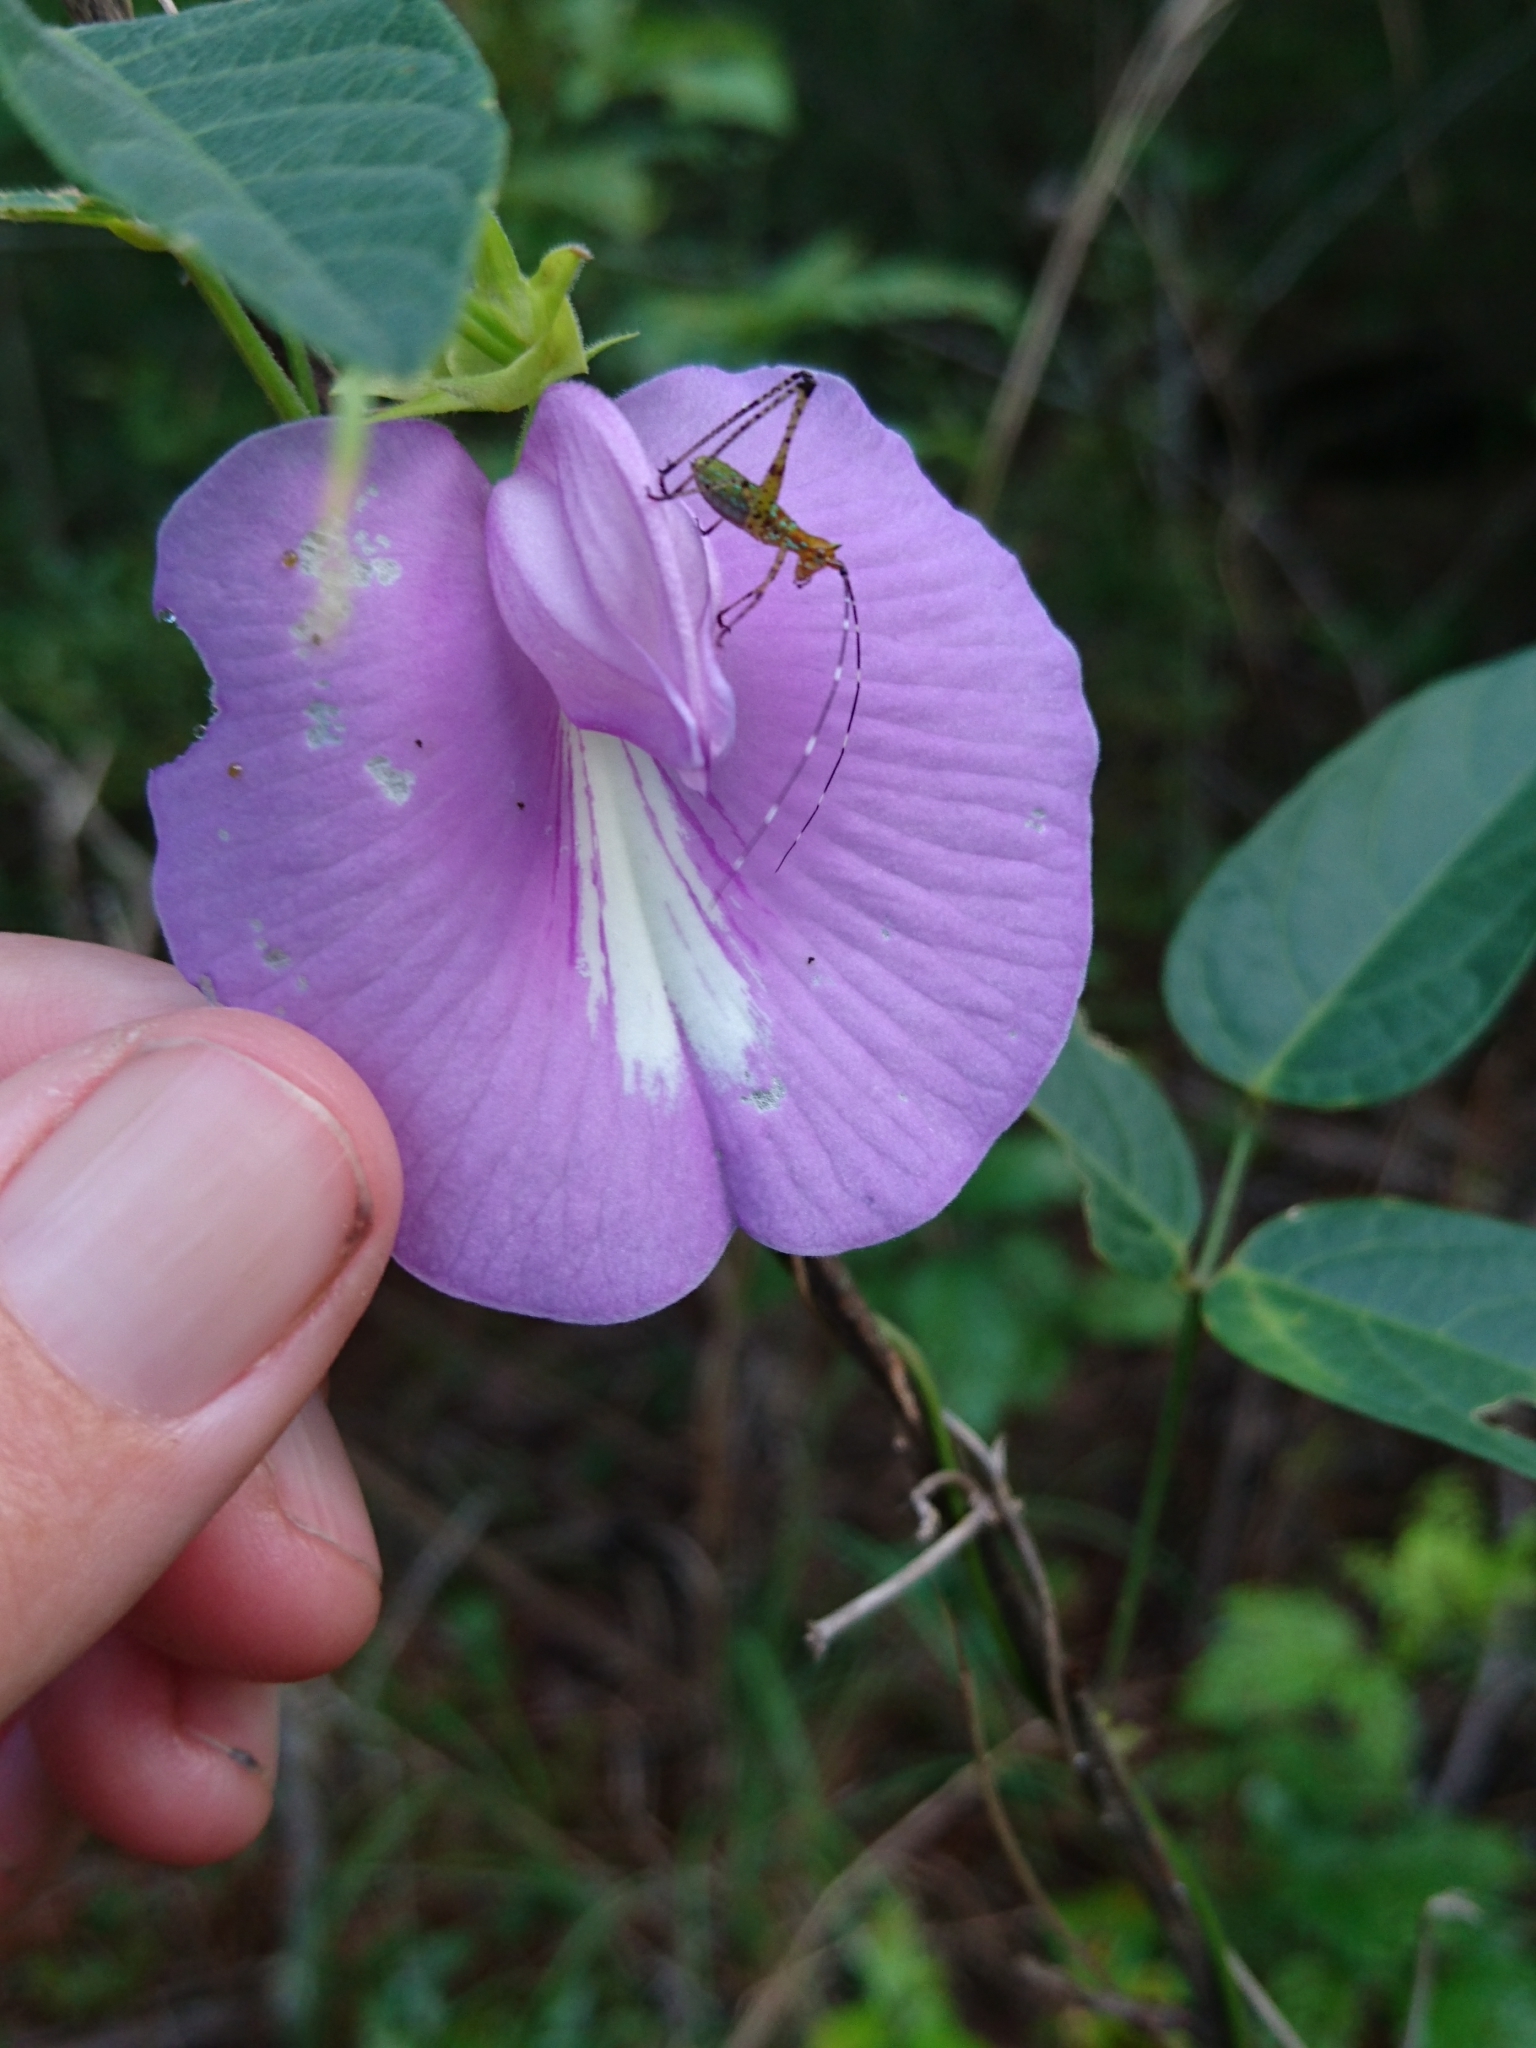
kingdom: Plantae
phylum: Tracheophyta
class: Magnoliopsida
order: Fabales
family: Fabaceae
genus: Centrosema
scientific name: Centrosema virginianum
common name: Butterfly-pea
